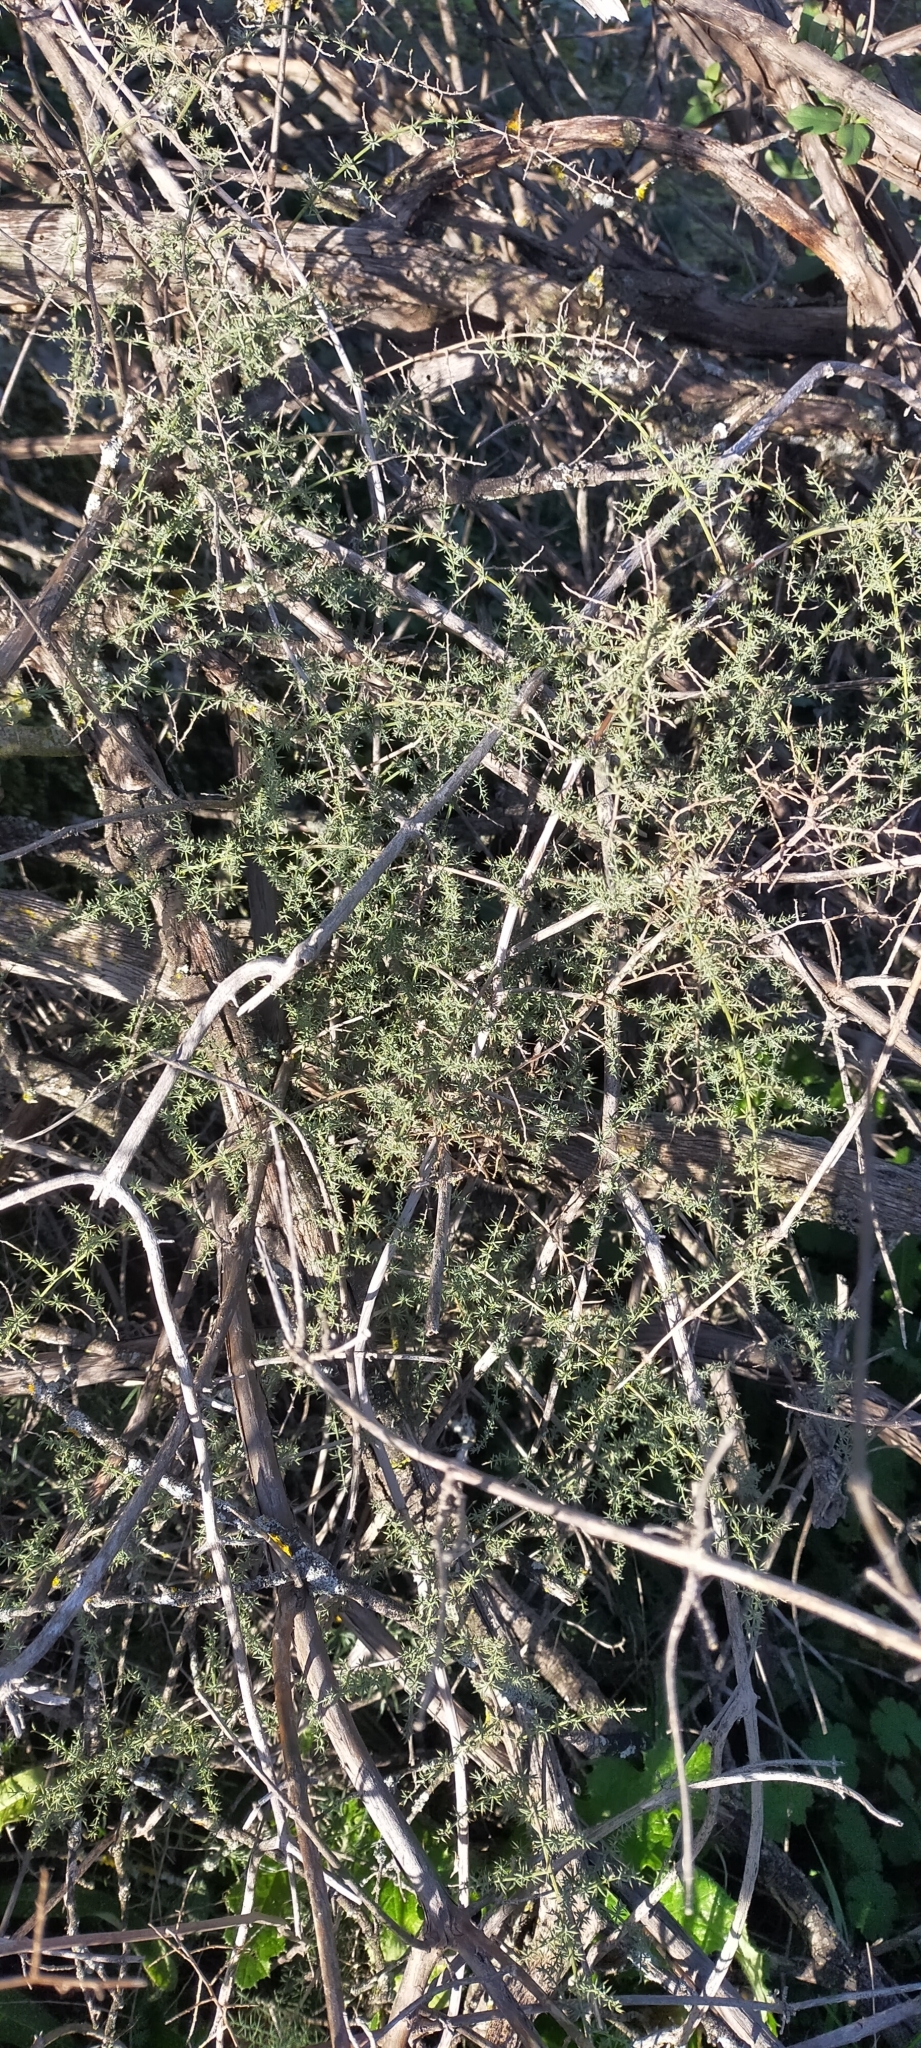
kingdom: Plantae
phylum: Tracheophyta
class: Liliopsida
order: Asparagales
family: Asparagaceae
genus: Asparagus
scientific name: Asparagus acutifolius
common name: Wild asparagus
